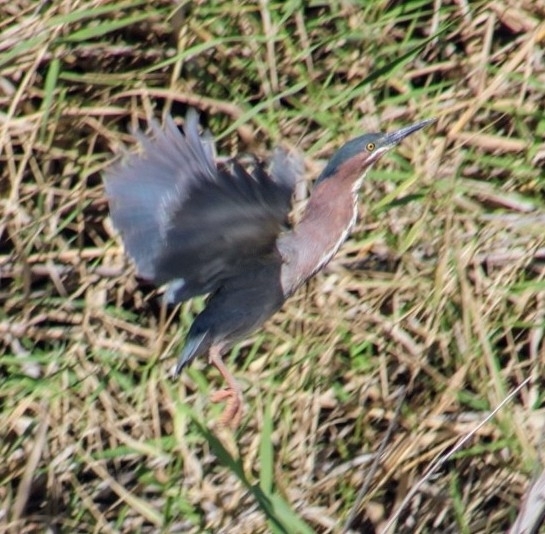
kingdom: Animalia
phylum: Chordata
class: Aves
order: Pelecaniformes
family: Ardeidae
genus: Butorides
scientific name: Butorides virescens
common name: Green heron
